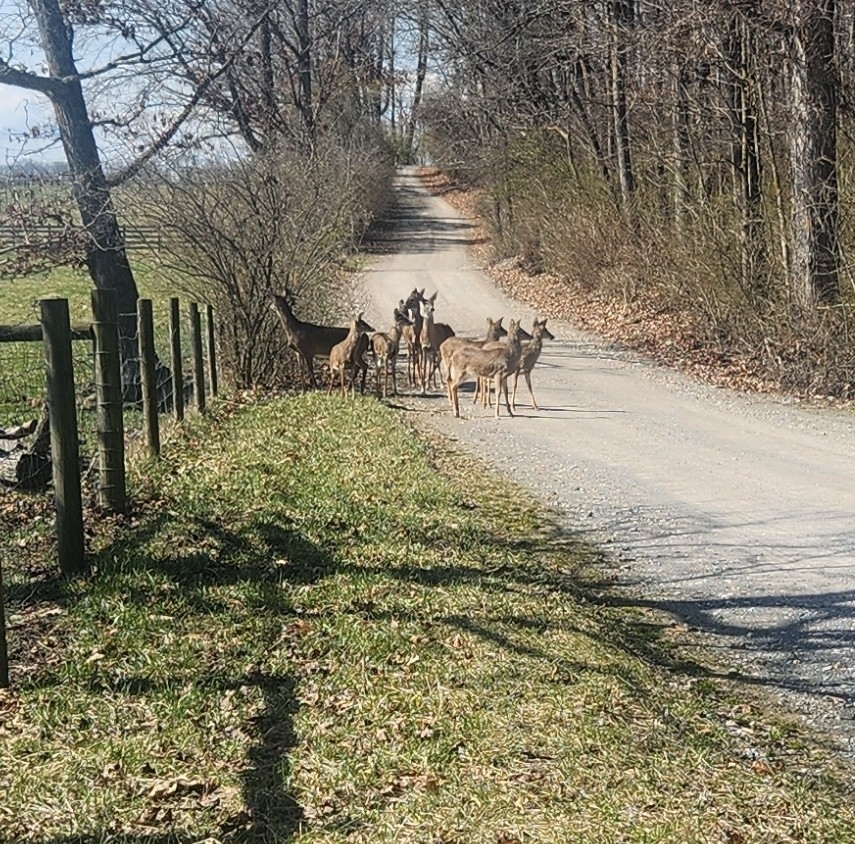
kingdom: Animalia
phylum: Chordata
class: Mammalia
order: Artiodactyla
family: Cervidae
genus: Odocoileus
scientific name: Odocoileus virginianus
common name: White-tailed deer
